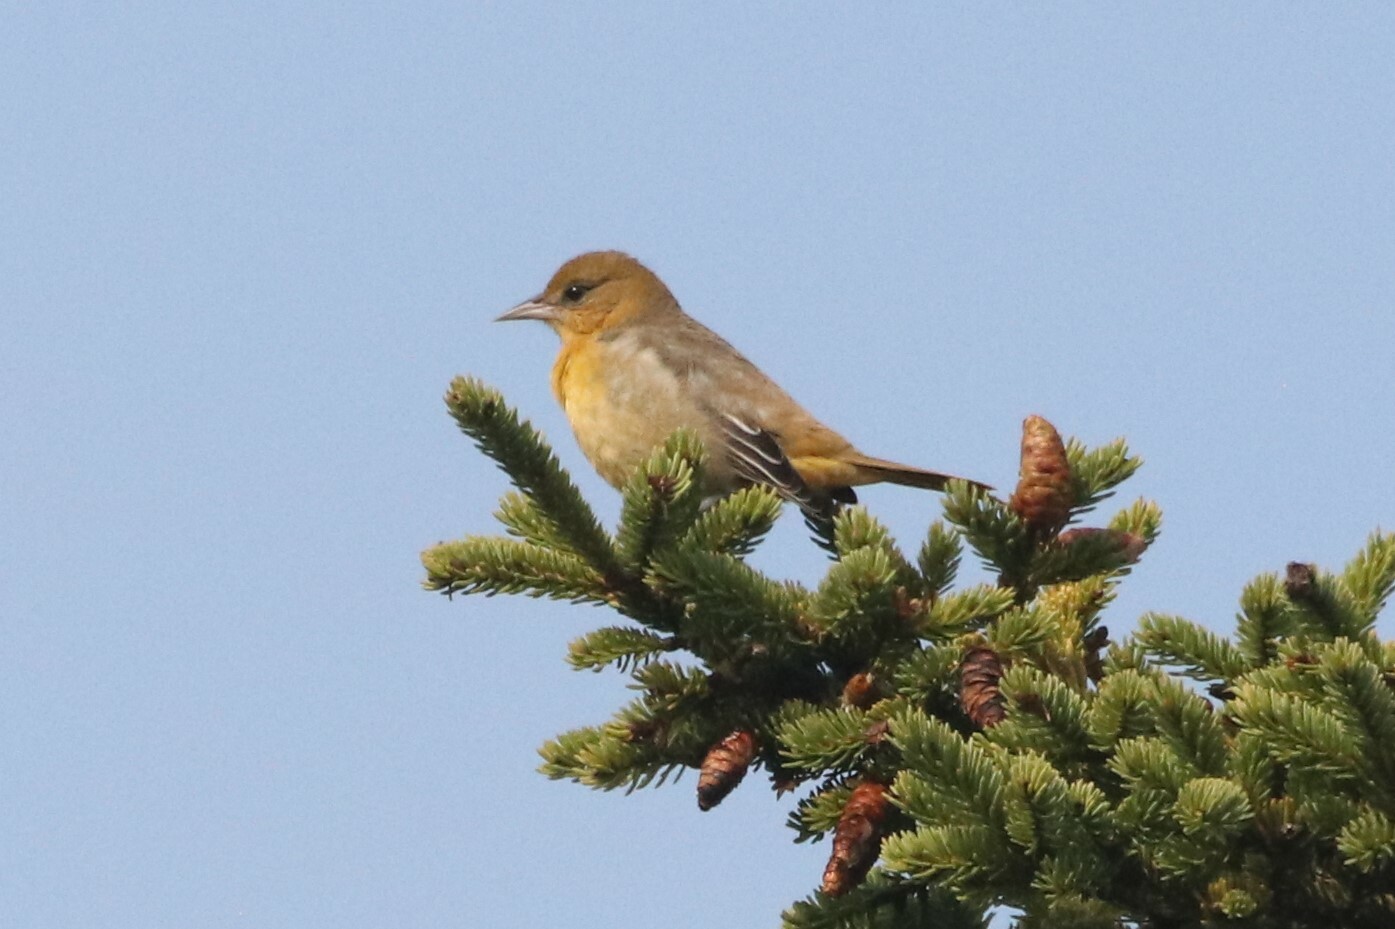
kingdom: Animalia
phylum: Chordata
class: Aves
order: Passeriformes
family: Icteridae
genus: Icterus
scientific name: Icterus galbula
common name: Baltimore oriole
